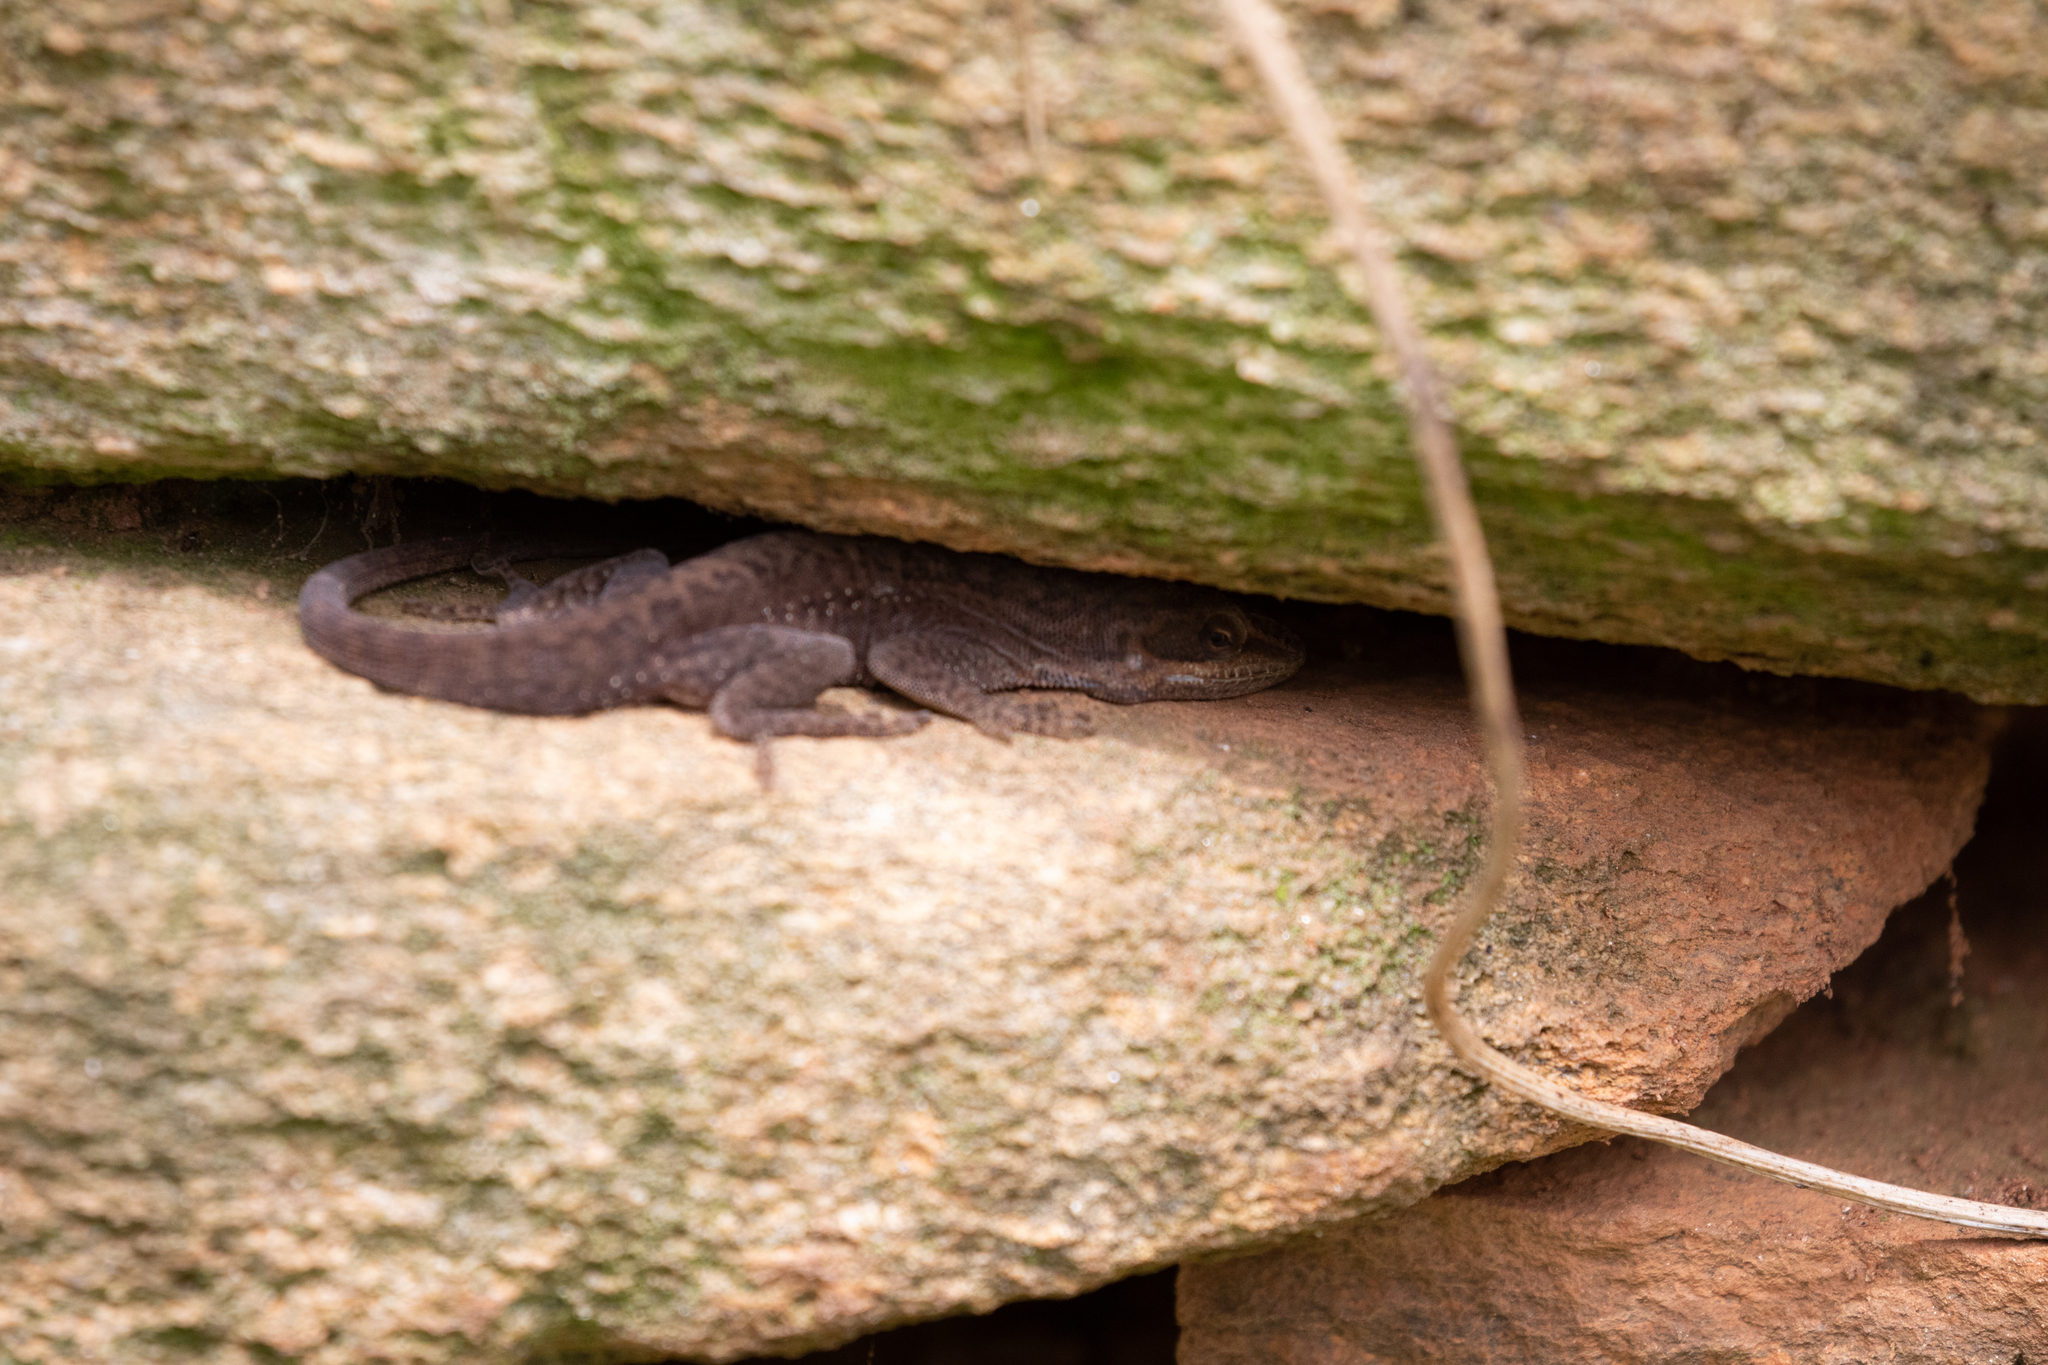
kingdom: Animalia
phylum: Chordata
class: Squamata
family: Dactyloidae
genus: Anolis
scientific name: Anolis carolinensis
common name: Green anole
